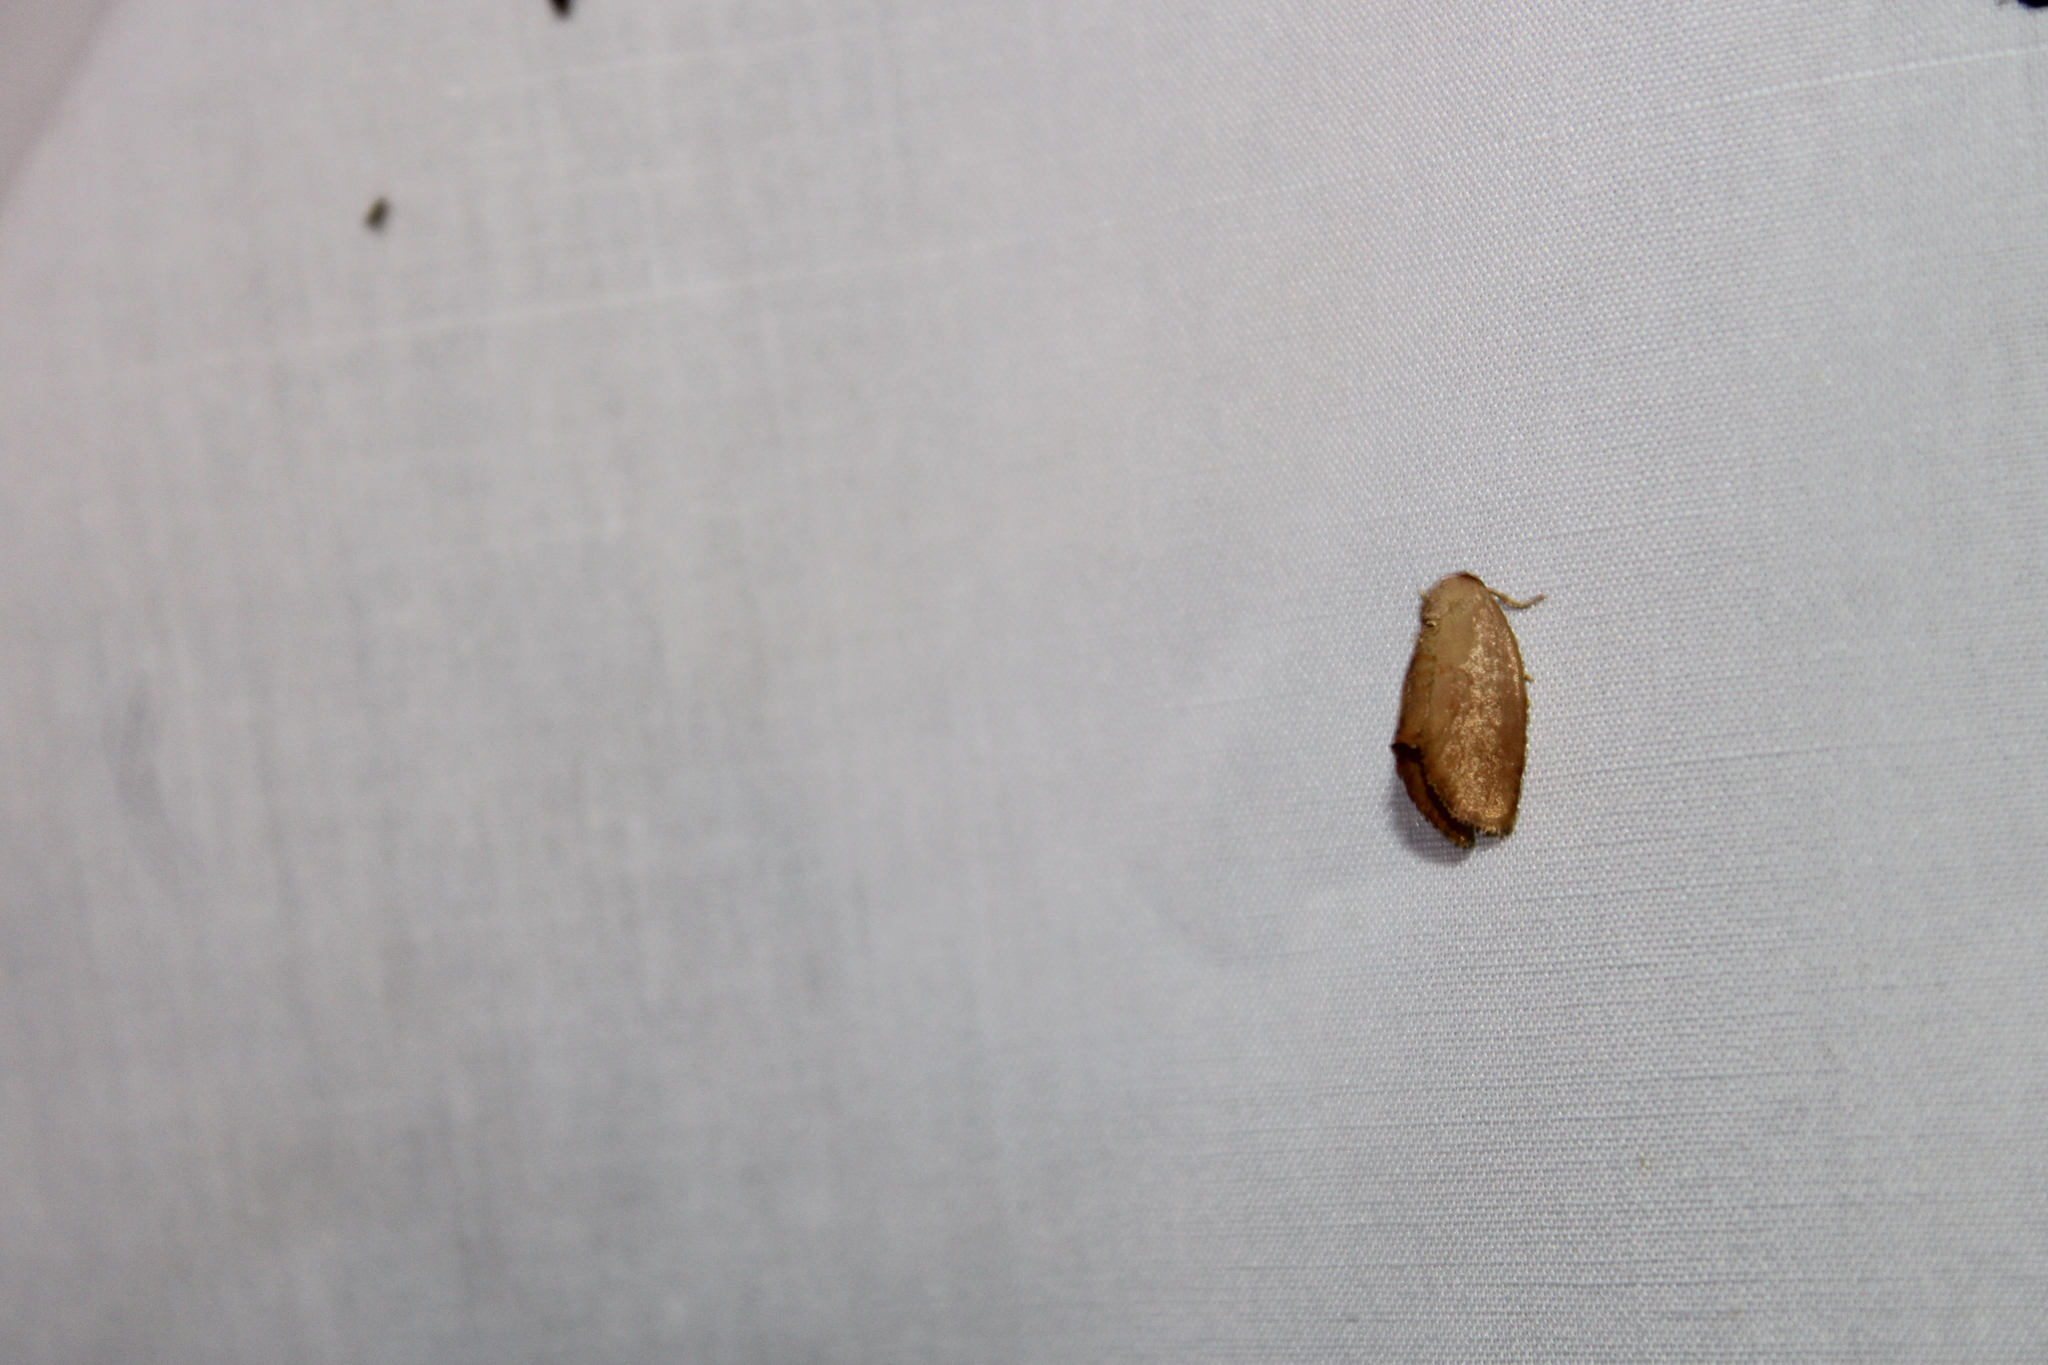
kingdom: Animalia
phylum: Arthropoda
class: Insecta
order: Lepidoptera
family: Limacodidae
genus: Heterogenea
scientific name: Heterogenea shurtleffi
